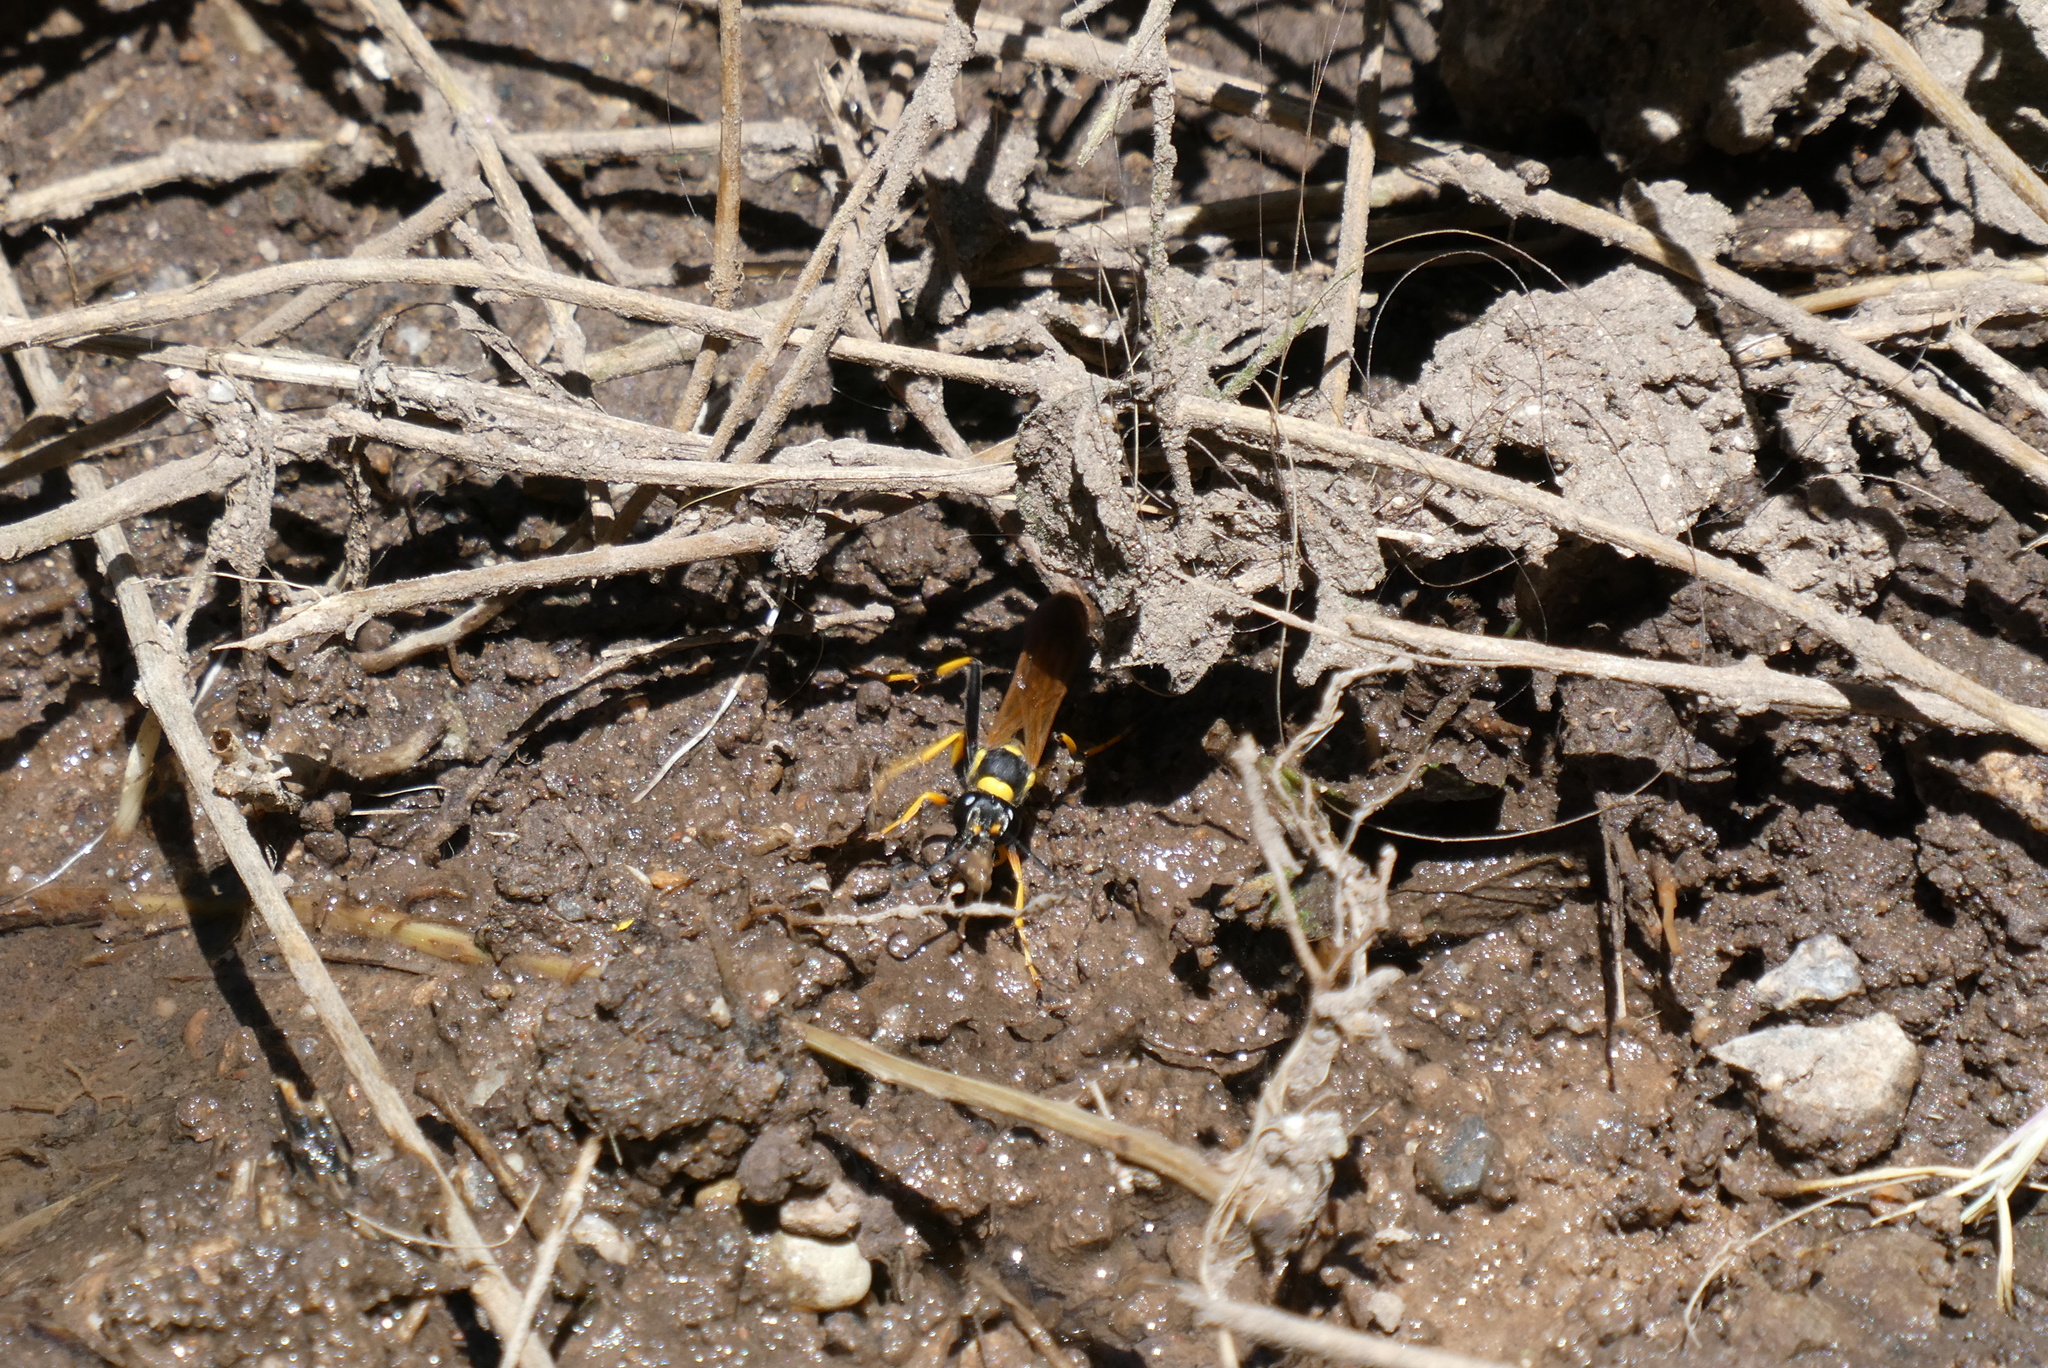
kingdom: Animalia
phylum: Arthropoda
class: Insecta
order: Hymenoptera
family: Sphecidae
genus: Sceliphron
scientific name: Sceliphron caementarium
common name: Mud dauber
